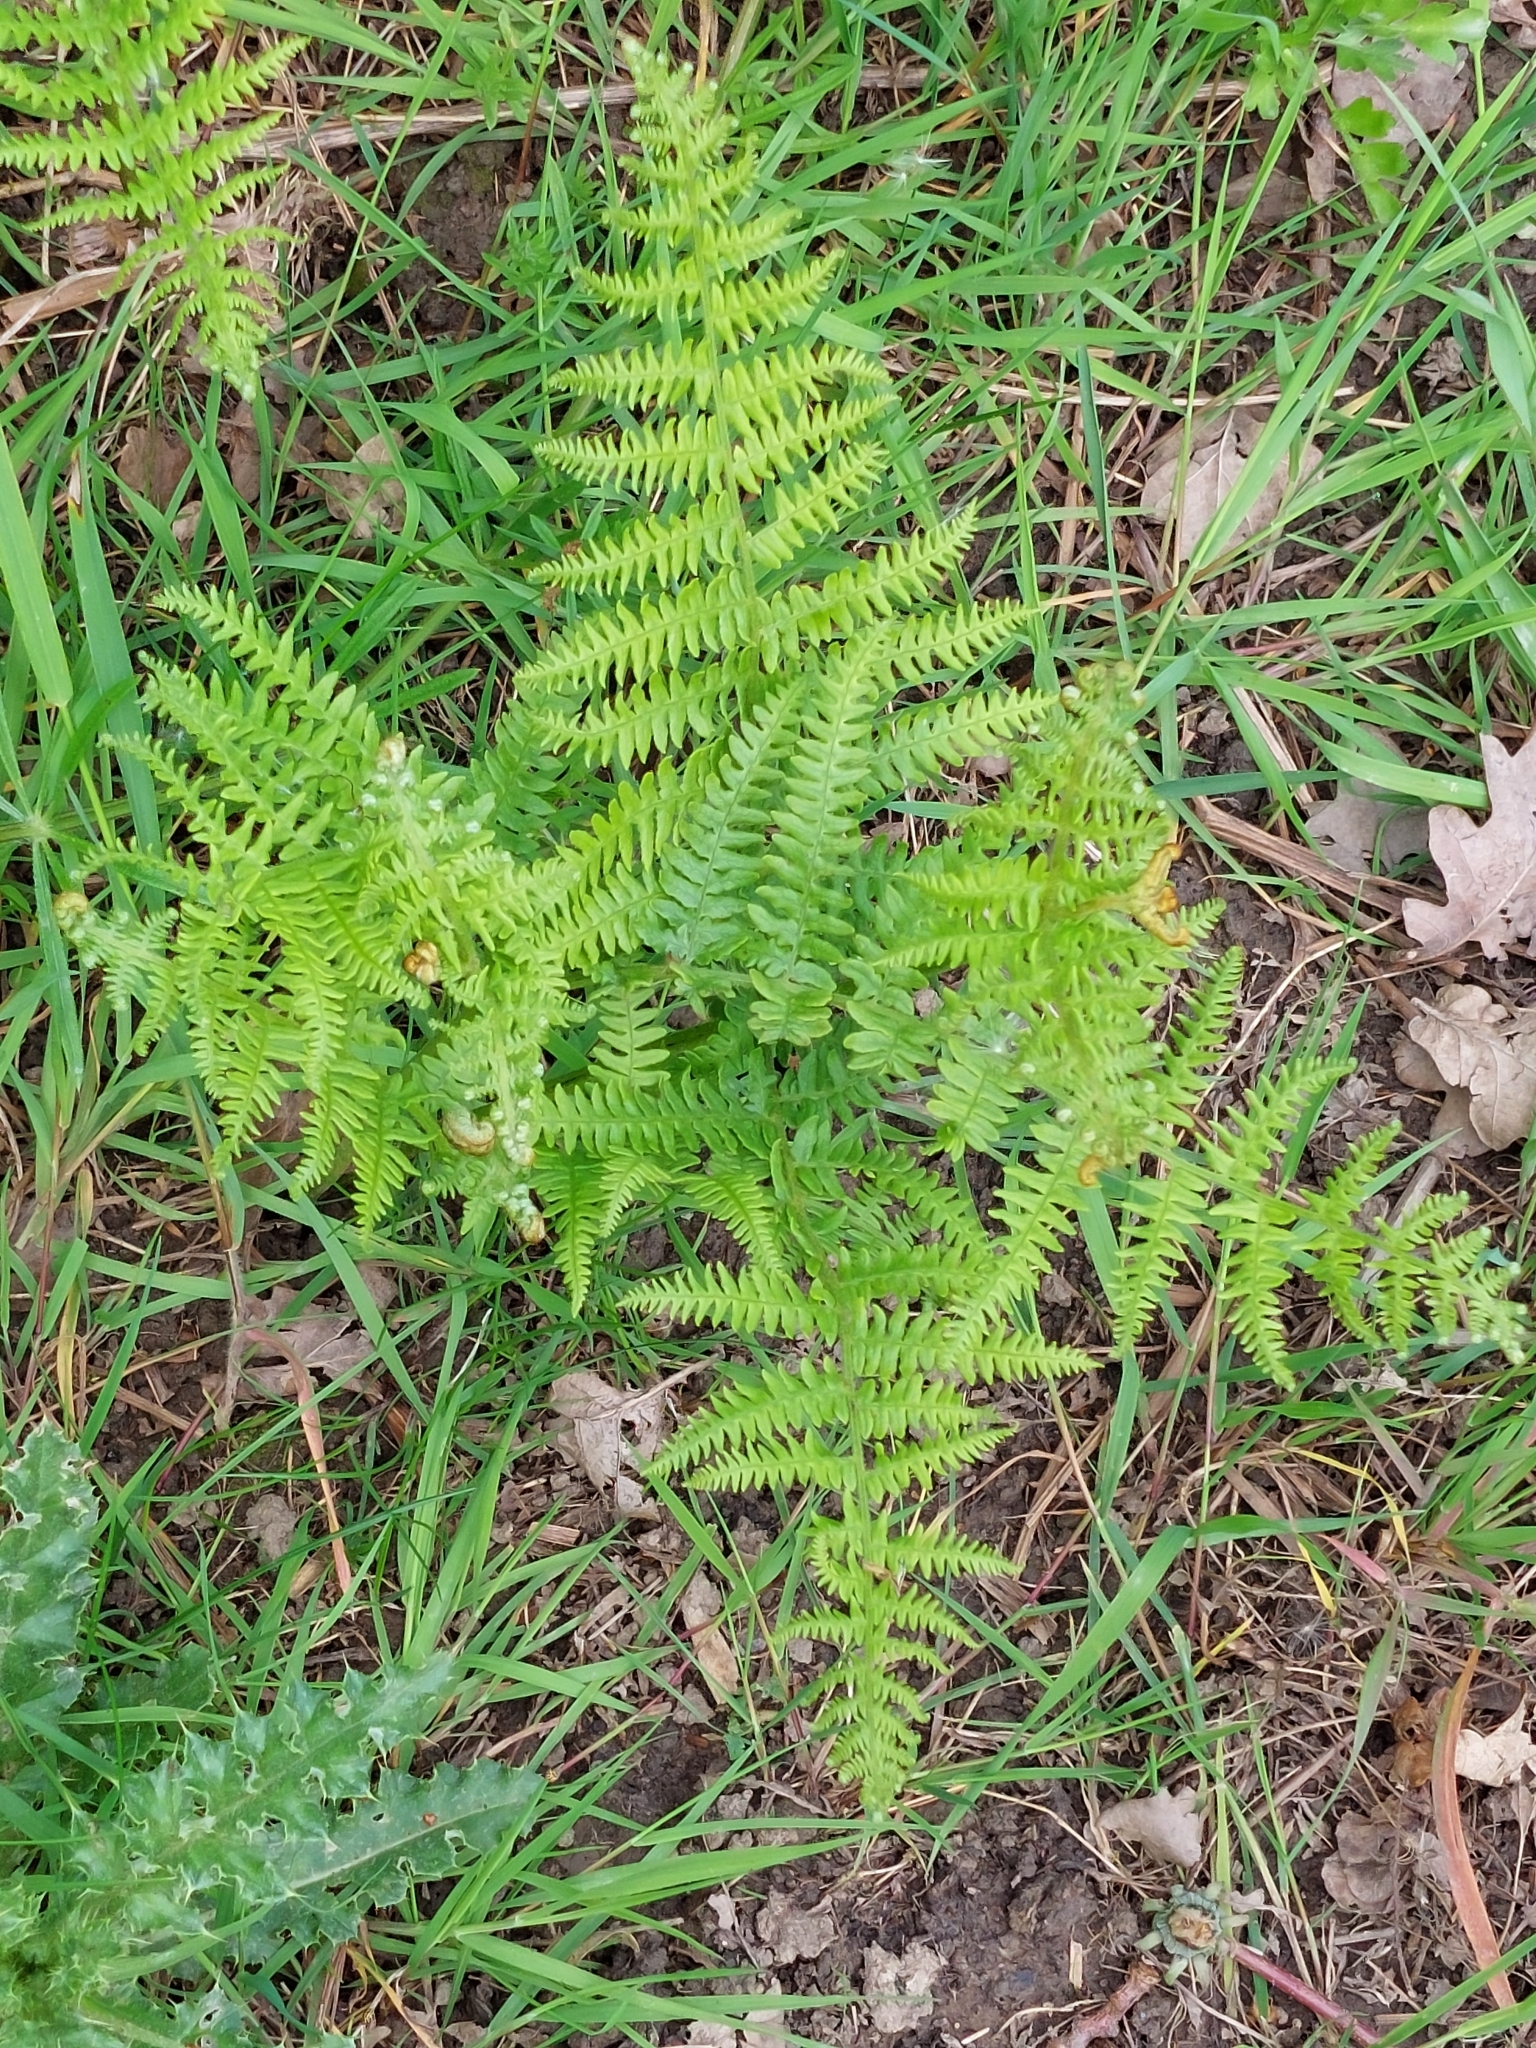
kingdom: Plantae
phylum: Tracheophyta
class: Polypodiopsida
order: Polypodiales
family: Dennstaedtiaceae
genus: Pteridium
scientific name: Pteridium aquilinum
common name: Bracken
